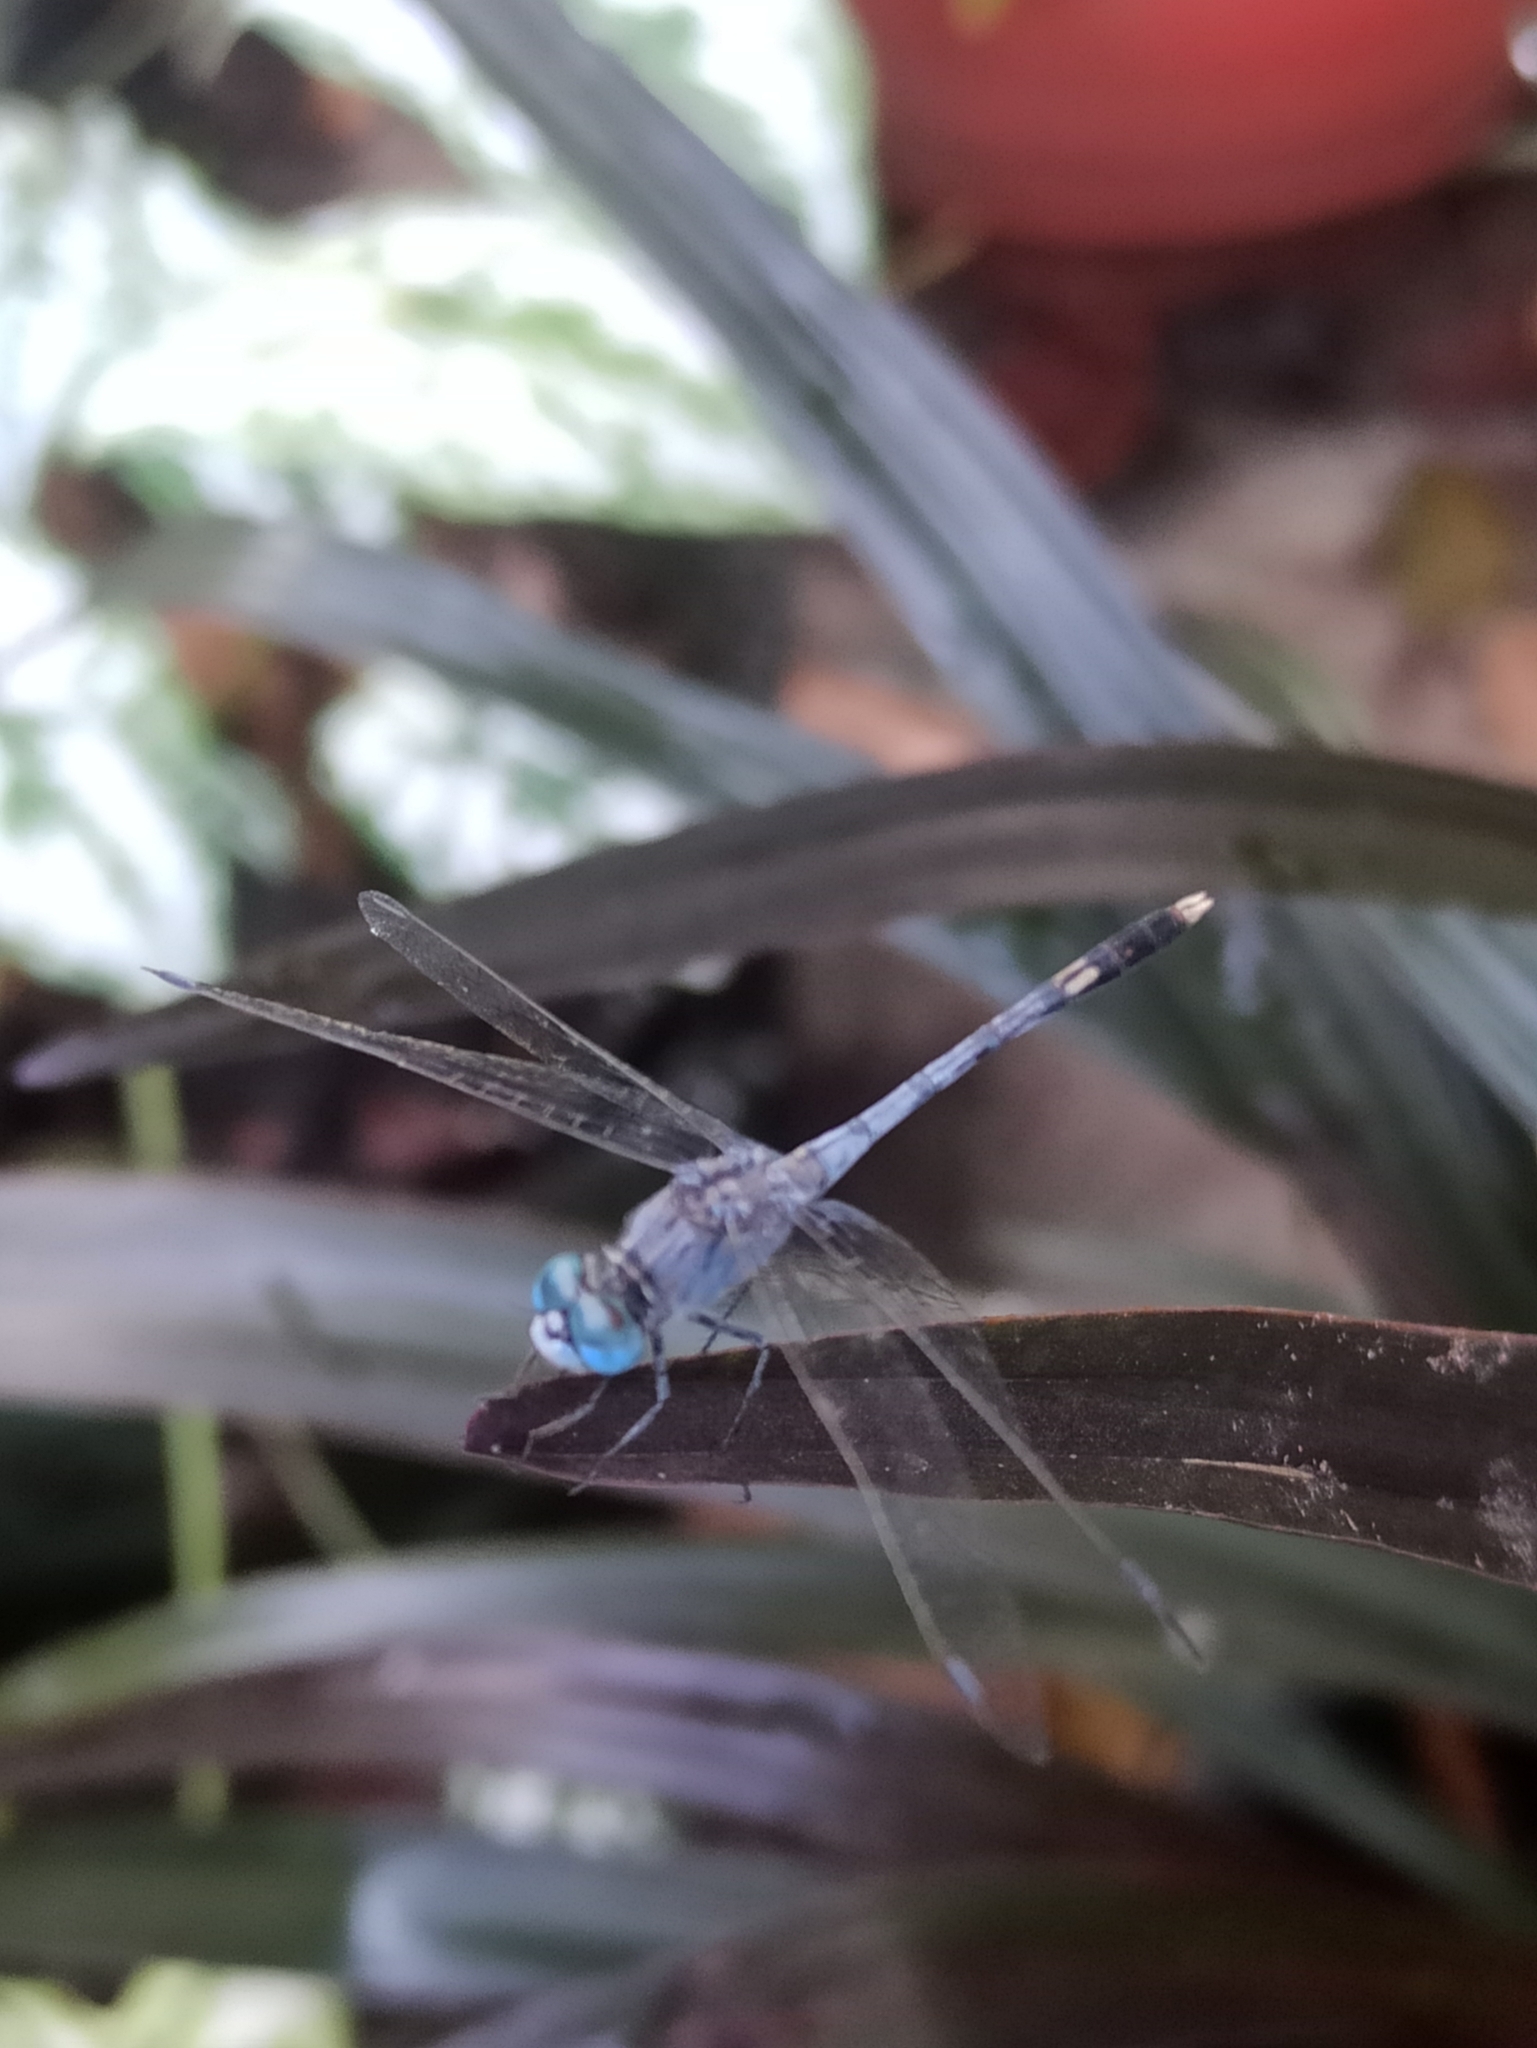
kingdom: Animalia
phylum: Arthropoda
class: Insecta
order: Odonata
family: Libellulidae
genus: Diplacodes
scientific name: Diplacodes trivialis
